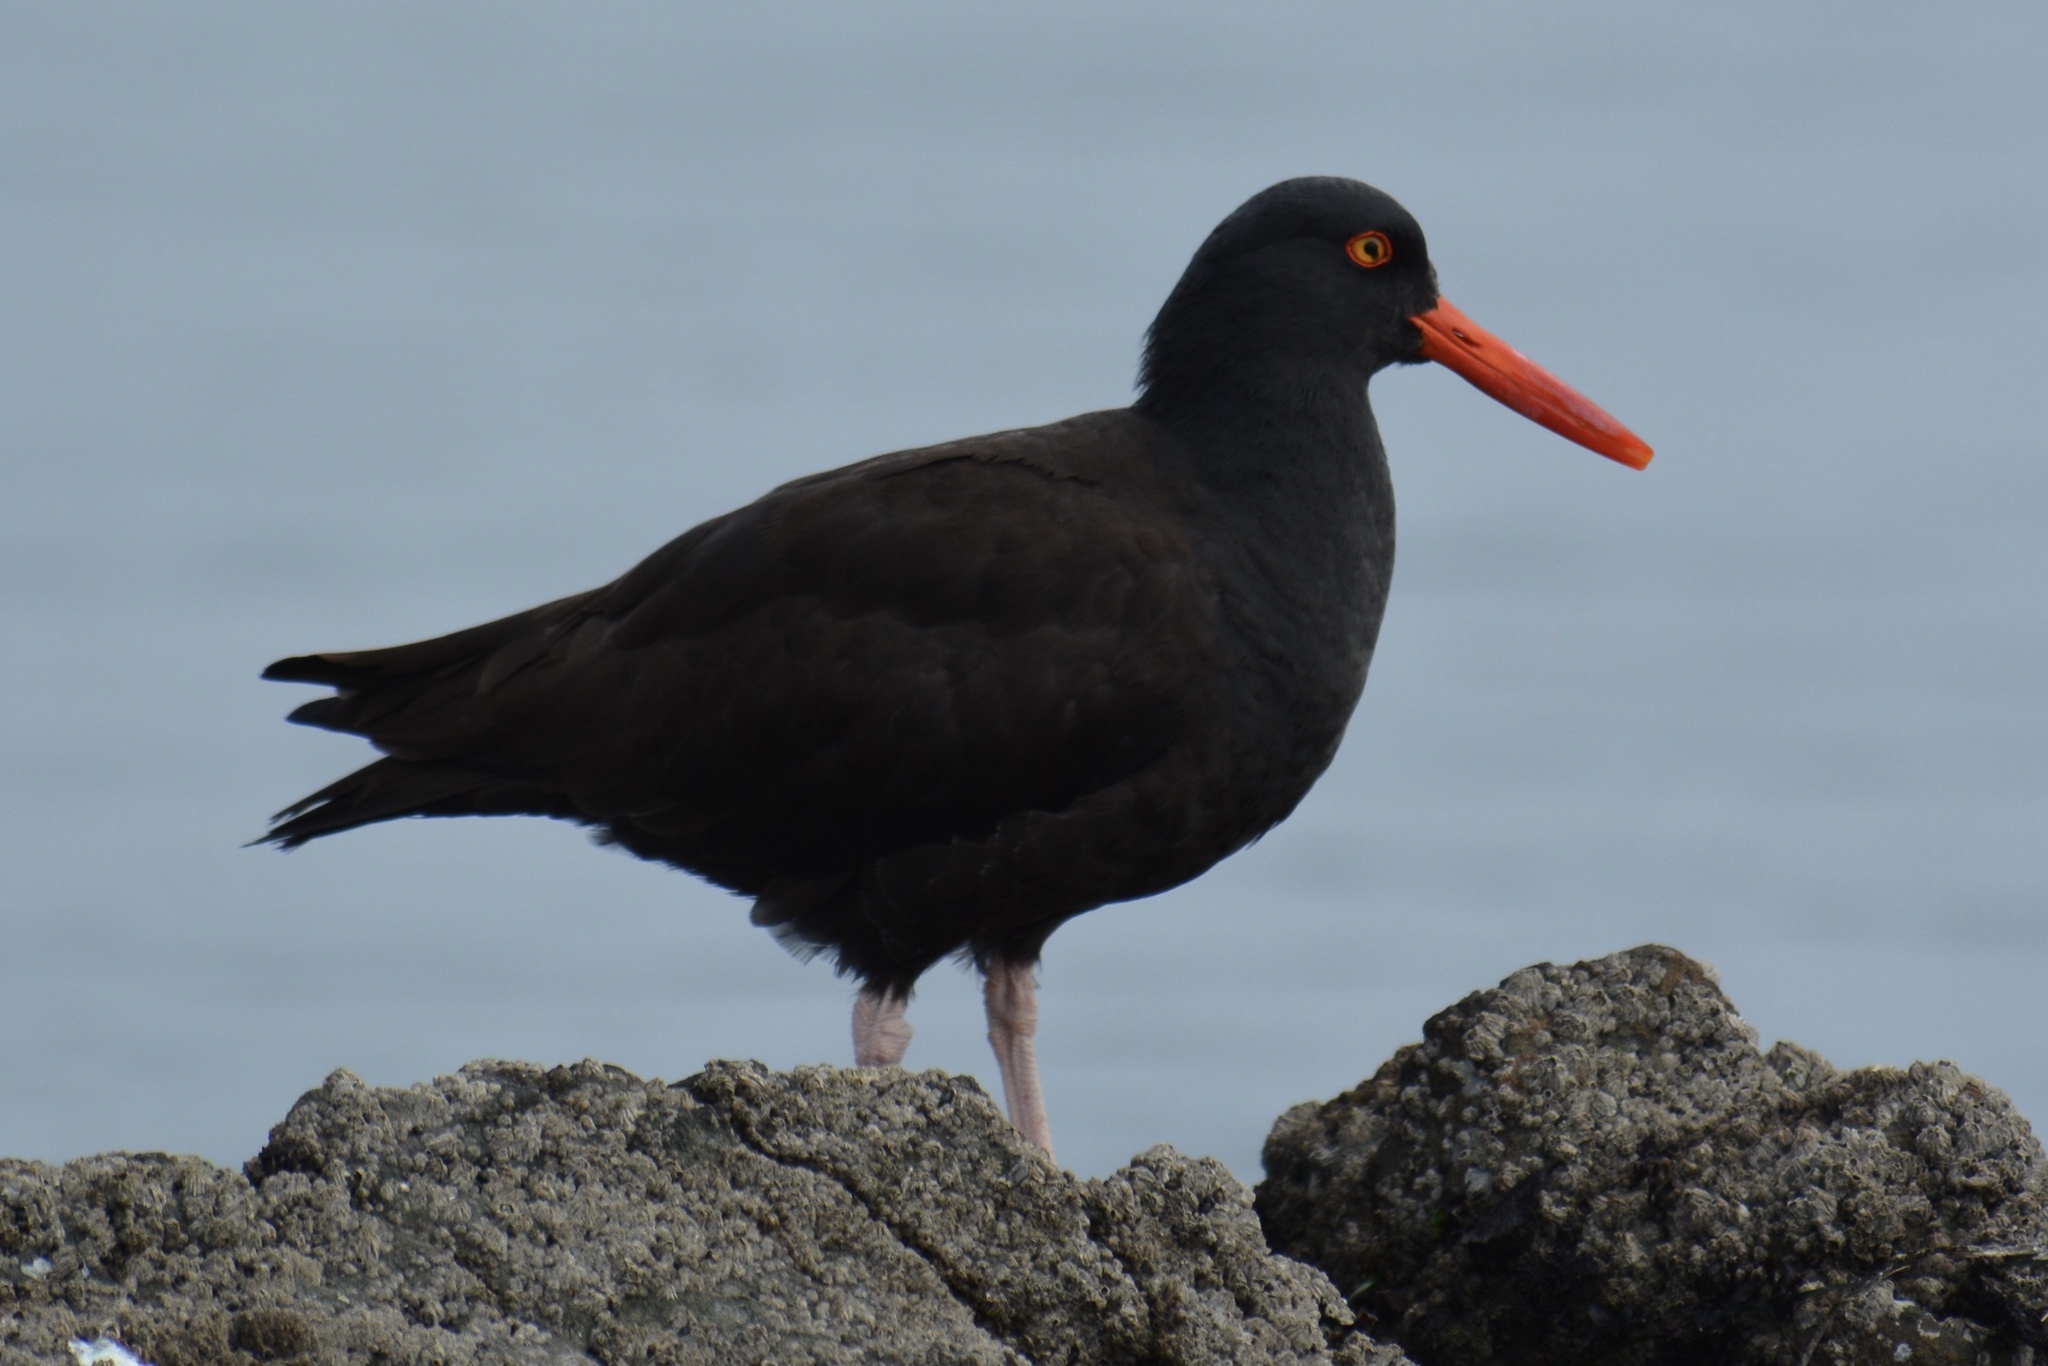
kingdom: Animalia
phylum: Chordata
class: Aves
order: Charadriiformes
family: Haematopodidae
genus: Haematopus
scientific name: Haematopus bachmani
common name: Black oystercatcher
